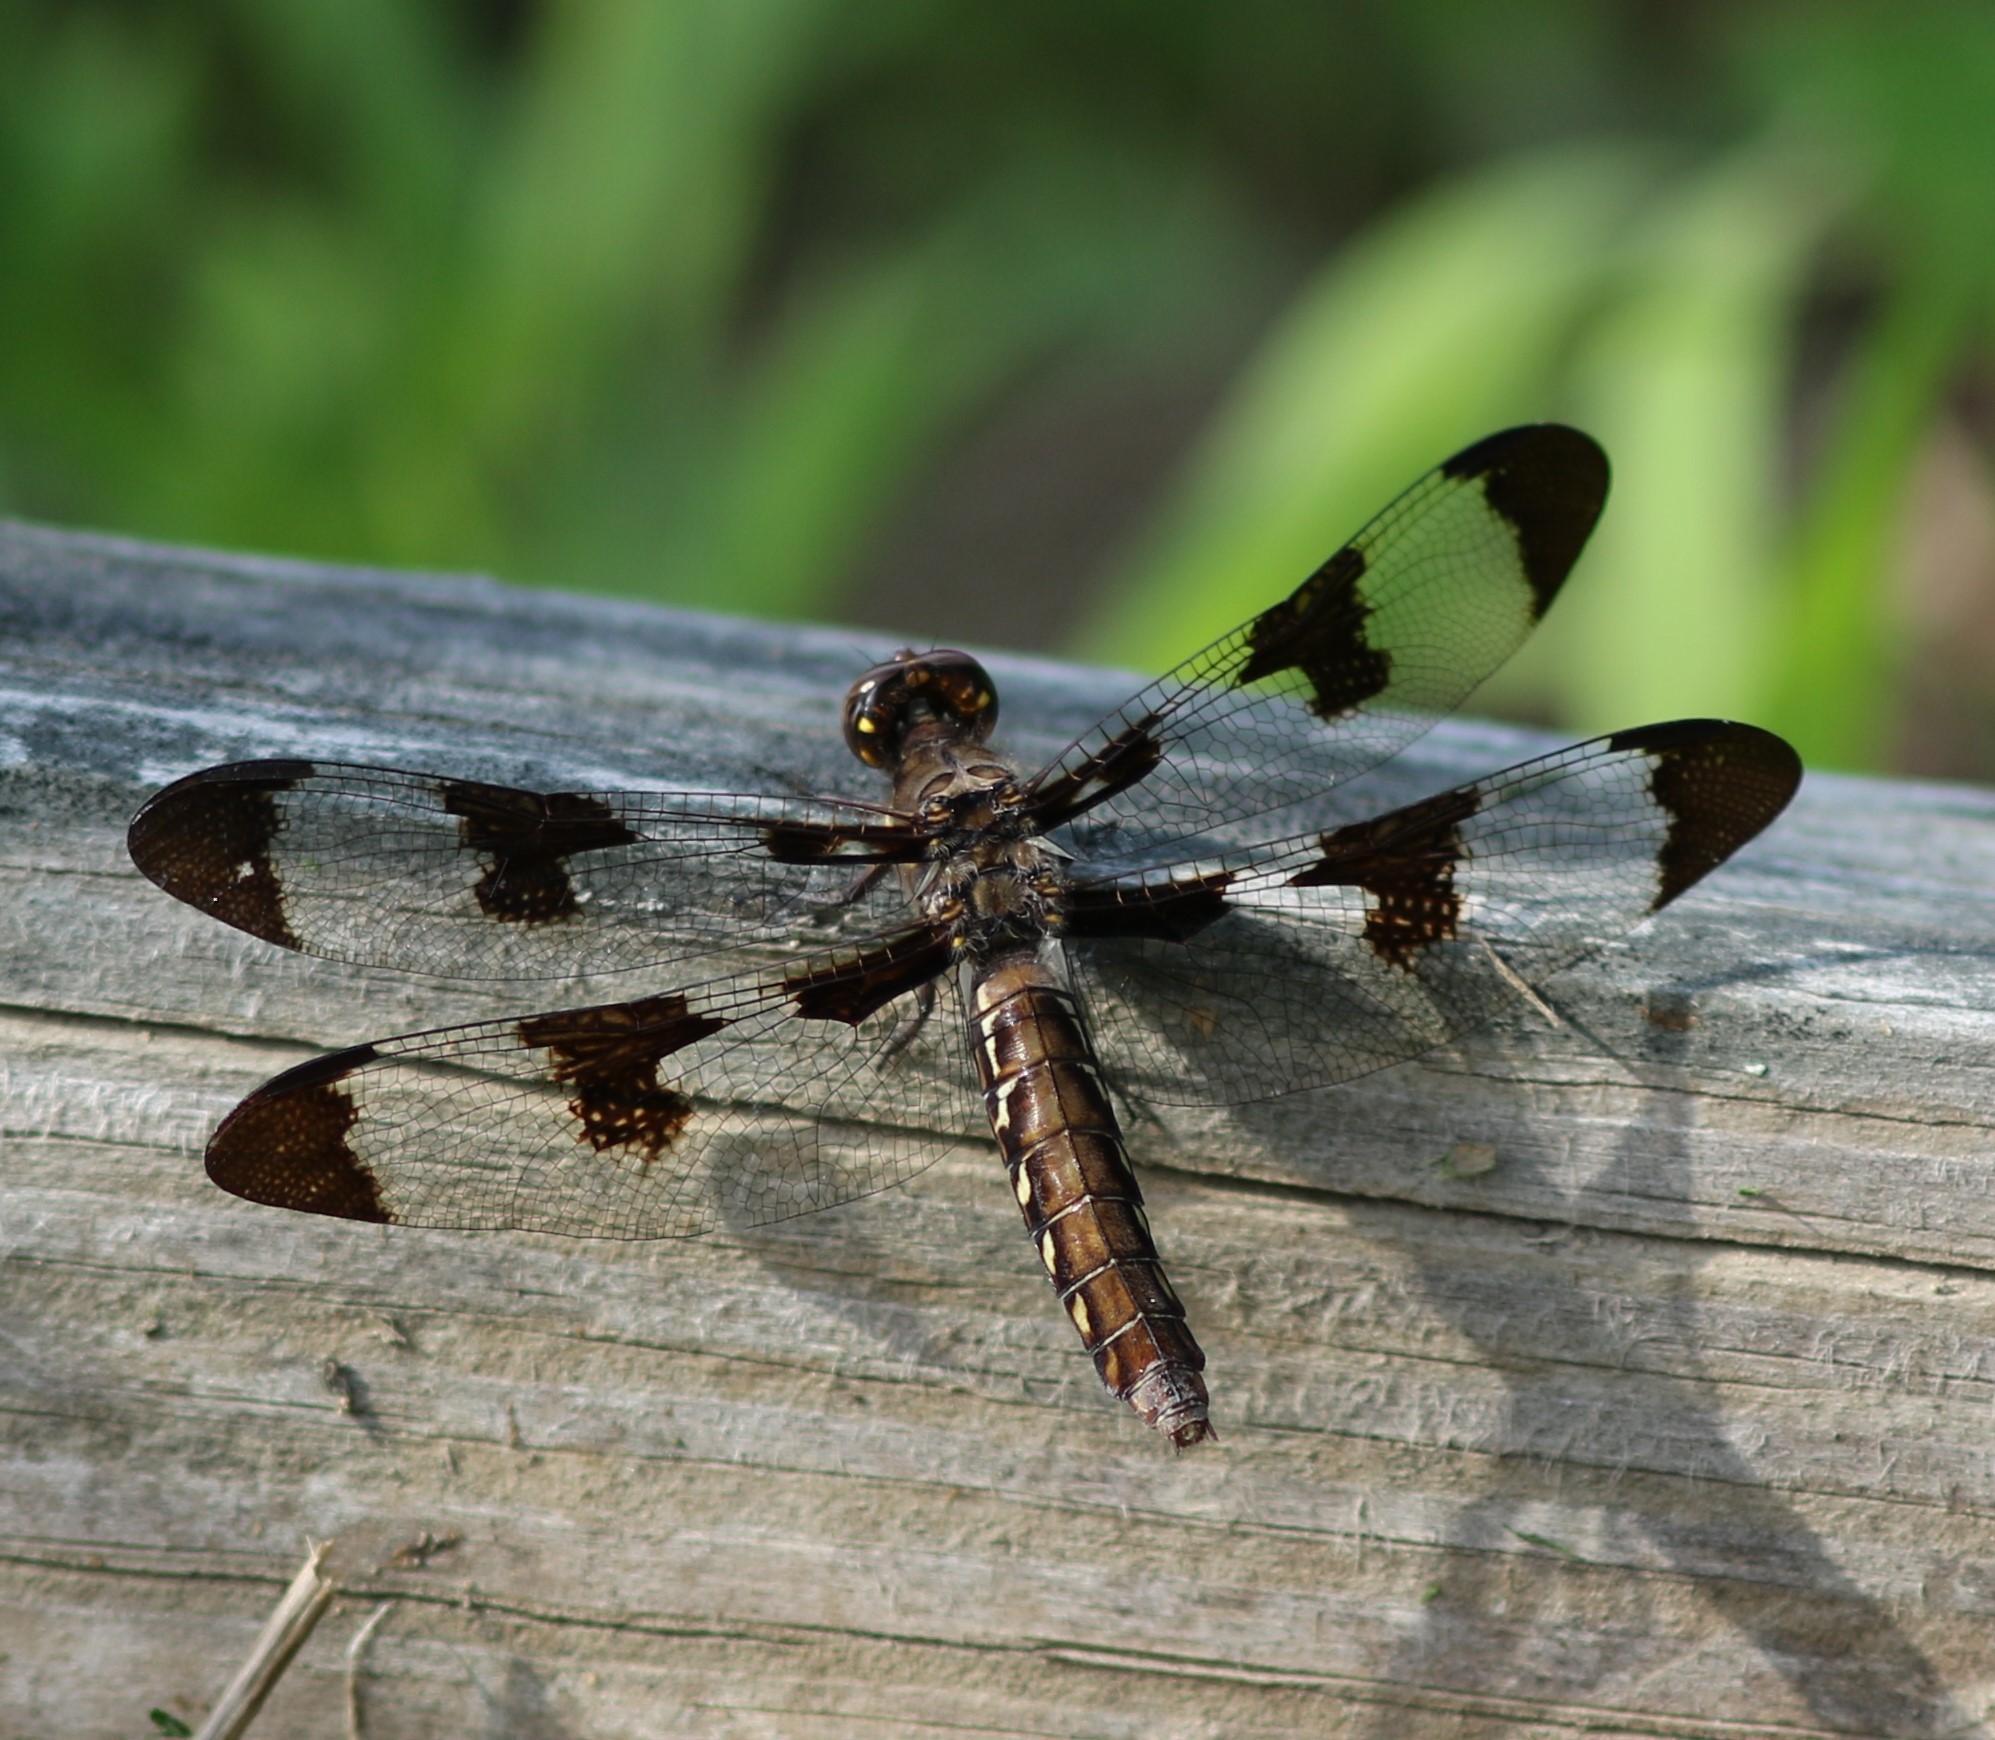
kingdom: Animalia
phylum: Arthropoda
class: Insecta
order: Odonata
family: Libellulidae
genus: Plathemis
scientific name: Plathemis lydia
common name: Common whitetail
